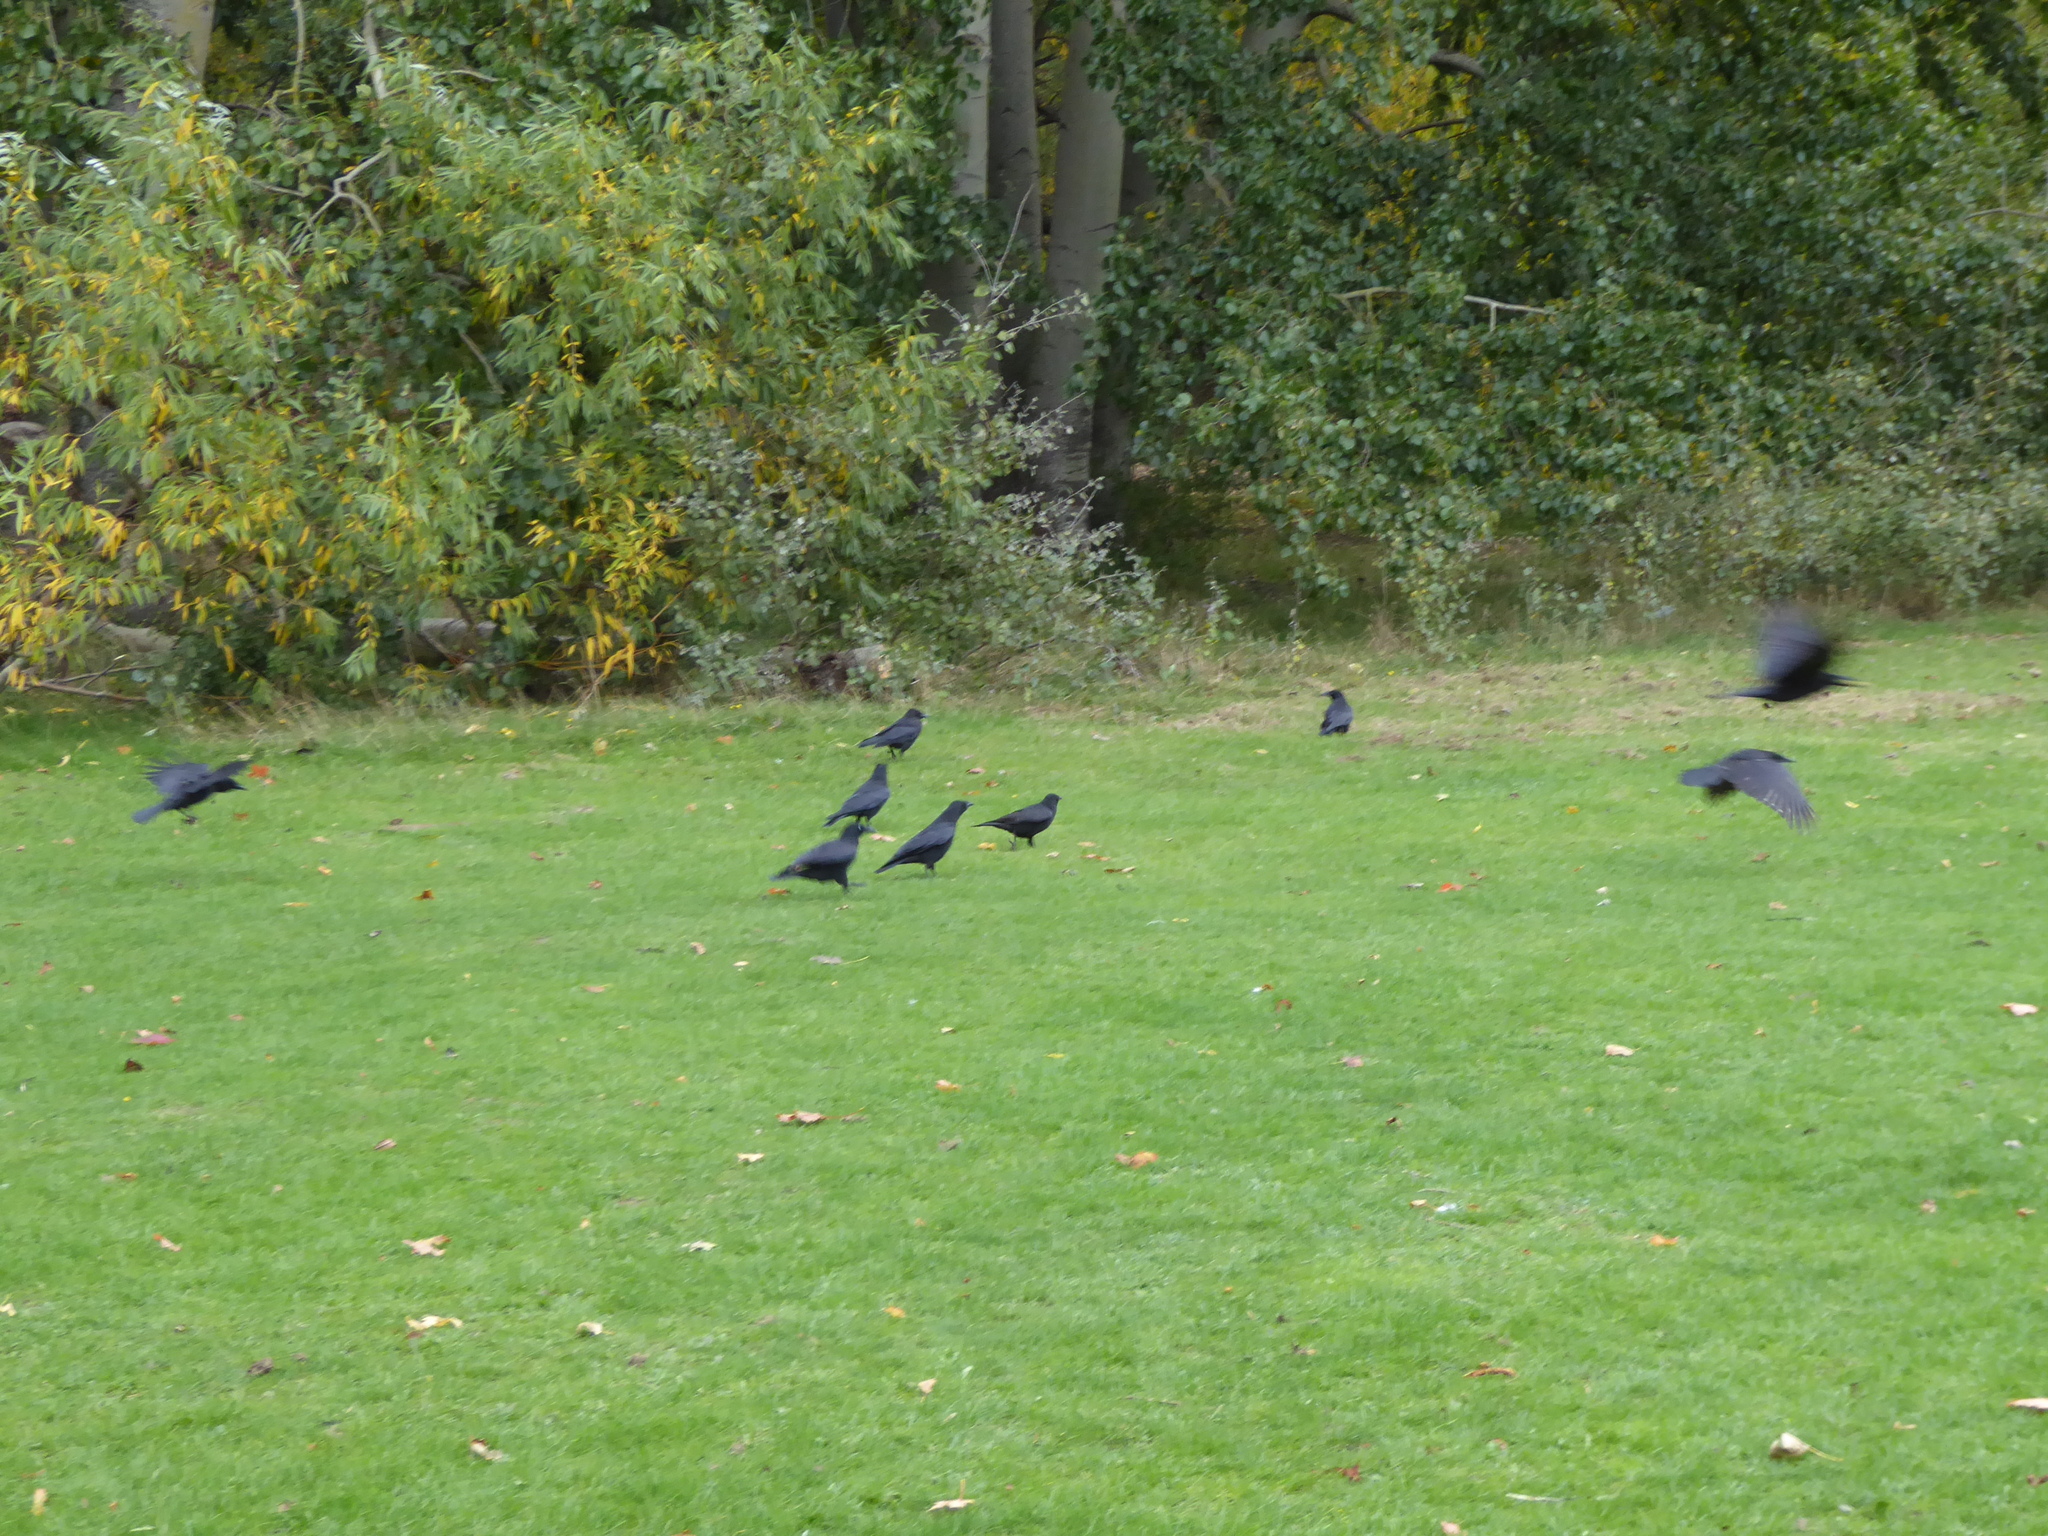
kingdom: Animalia
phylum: Chordata
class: Aves
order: Passeriformes
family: Corvidae
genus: Corvus
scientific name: Corvus corone
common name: Carrion crow
